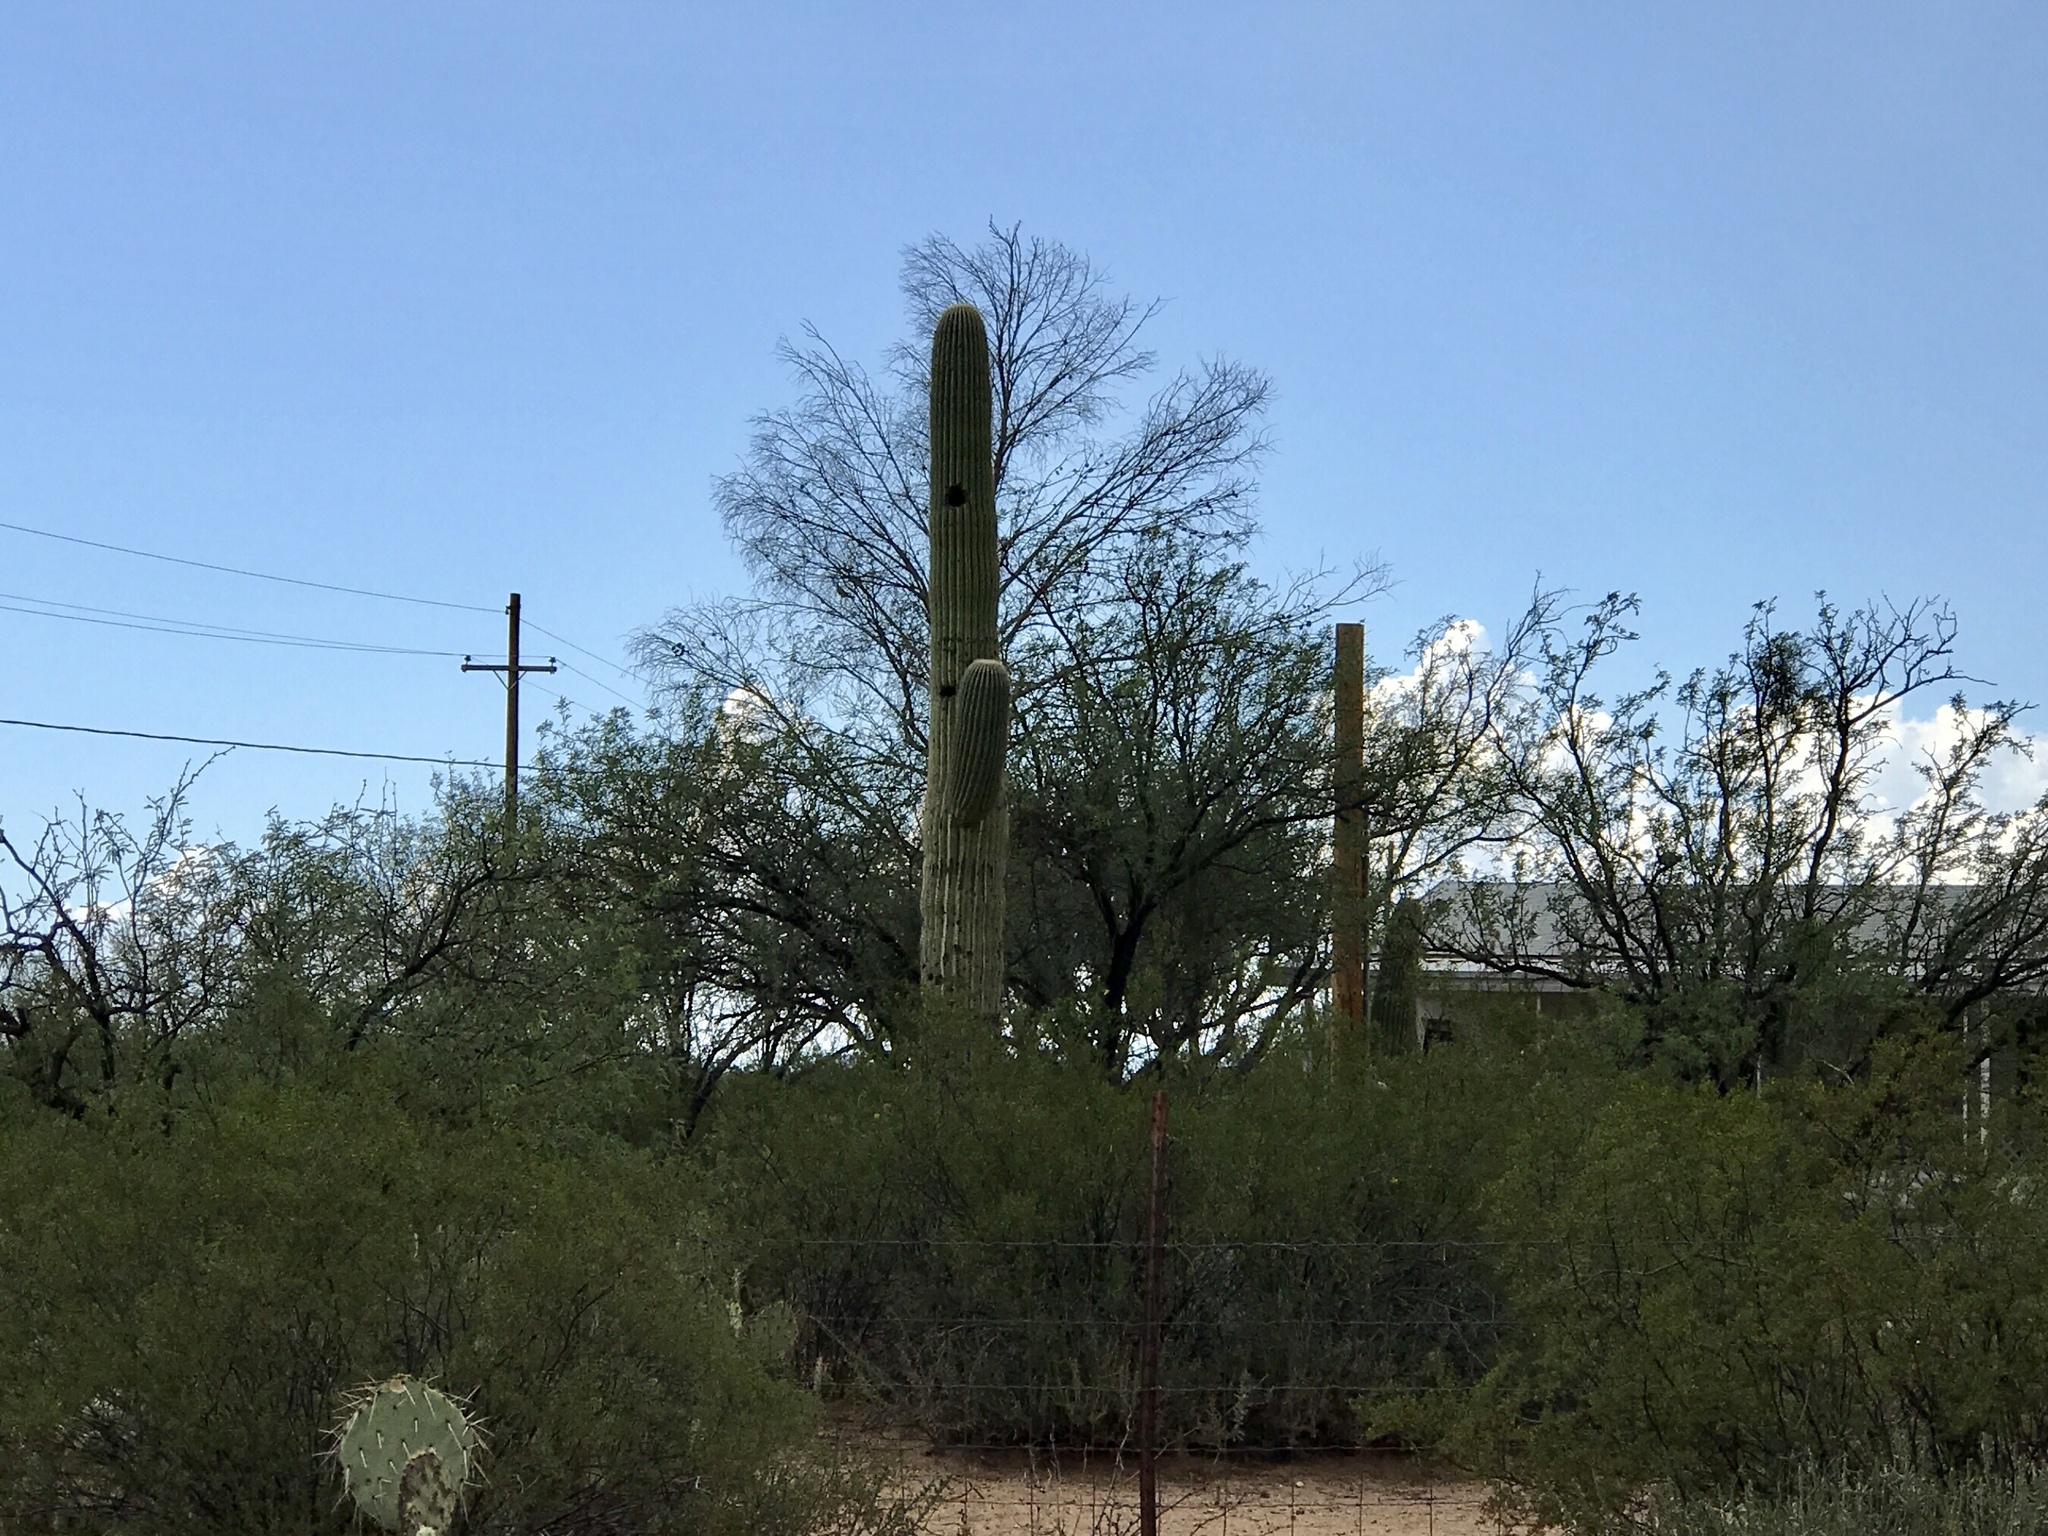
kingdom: Plantae
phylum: Tracheophyta
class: Magnoliopsida
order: Caryophyllales
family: Cactaceae
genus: Carnegiea
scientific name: Carnegiea gigantea
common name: Saguaro
